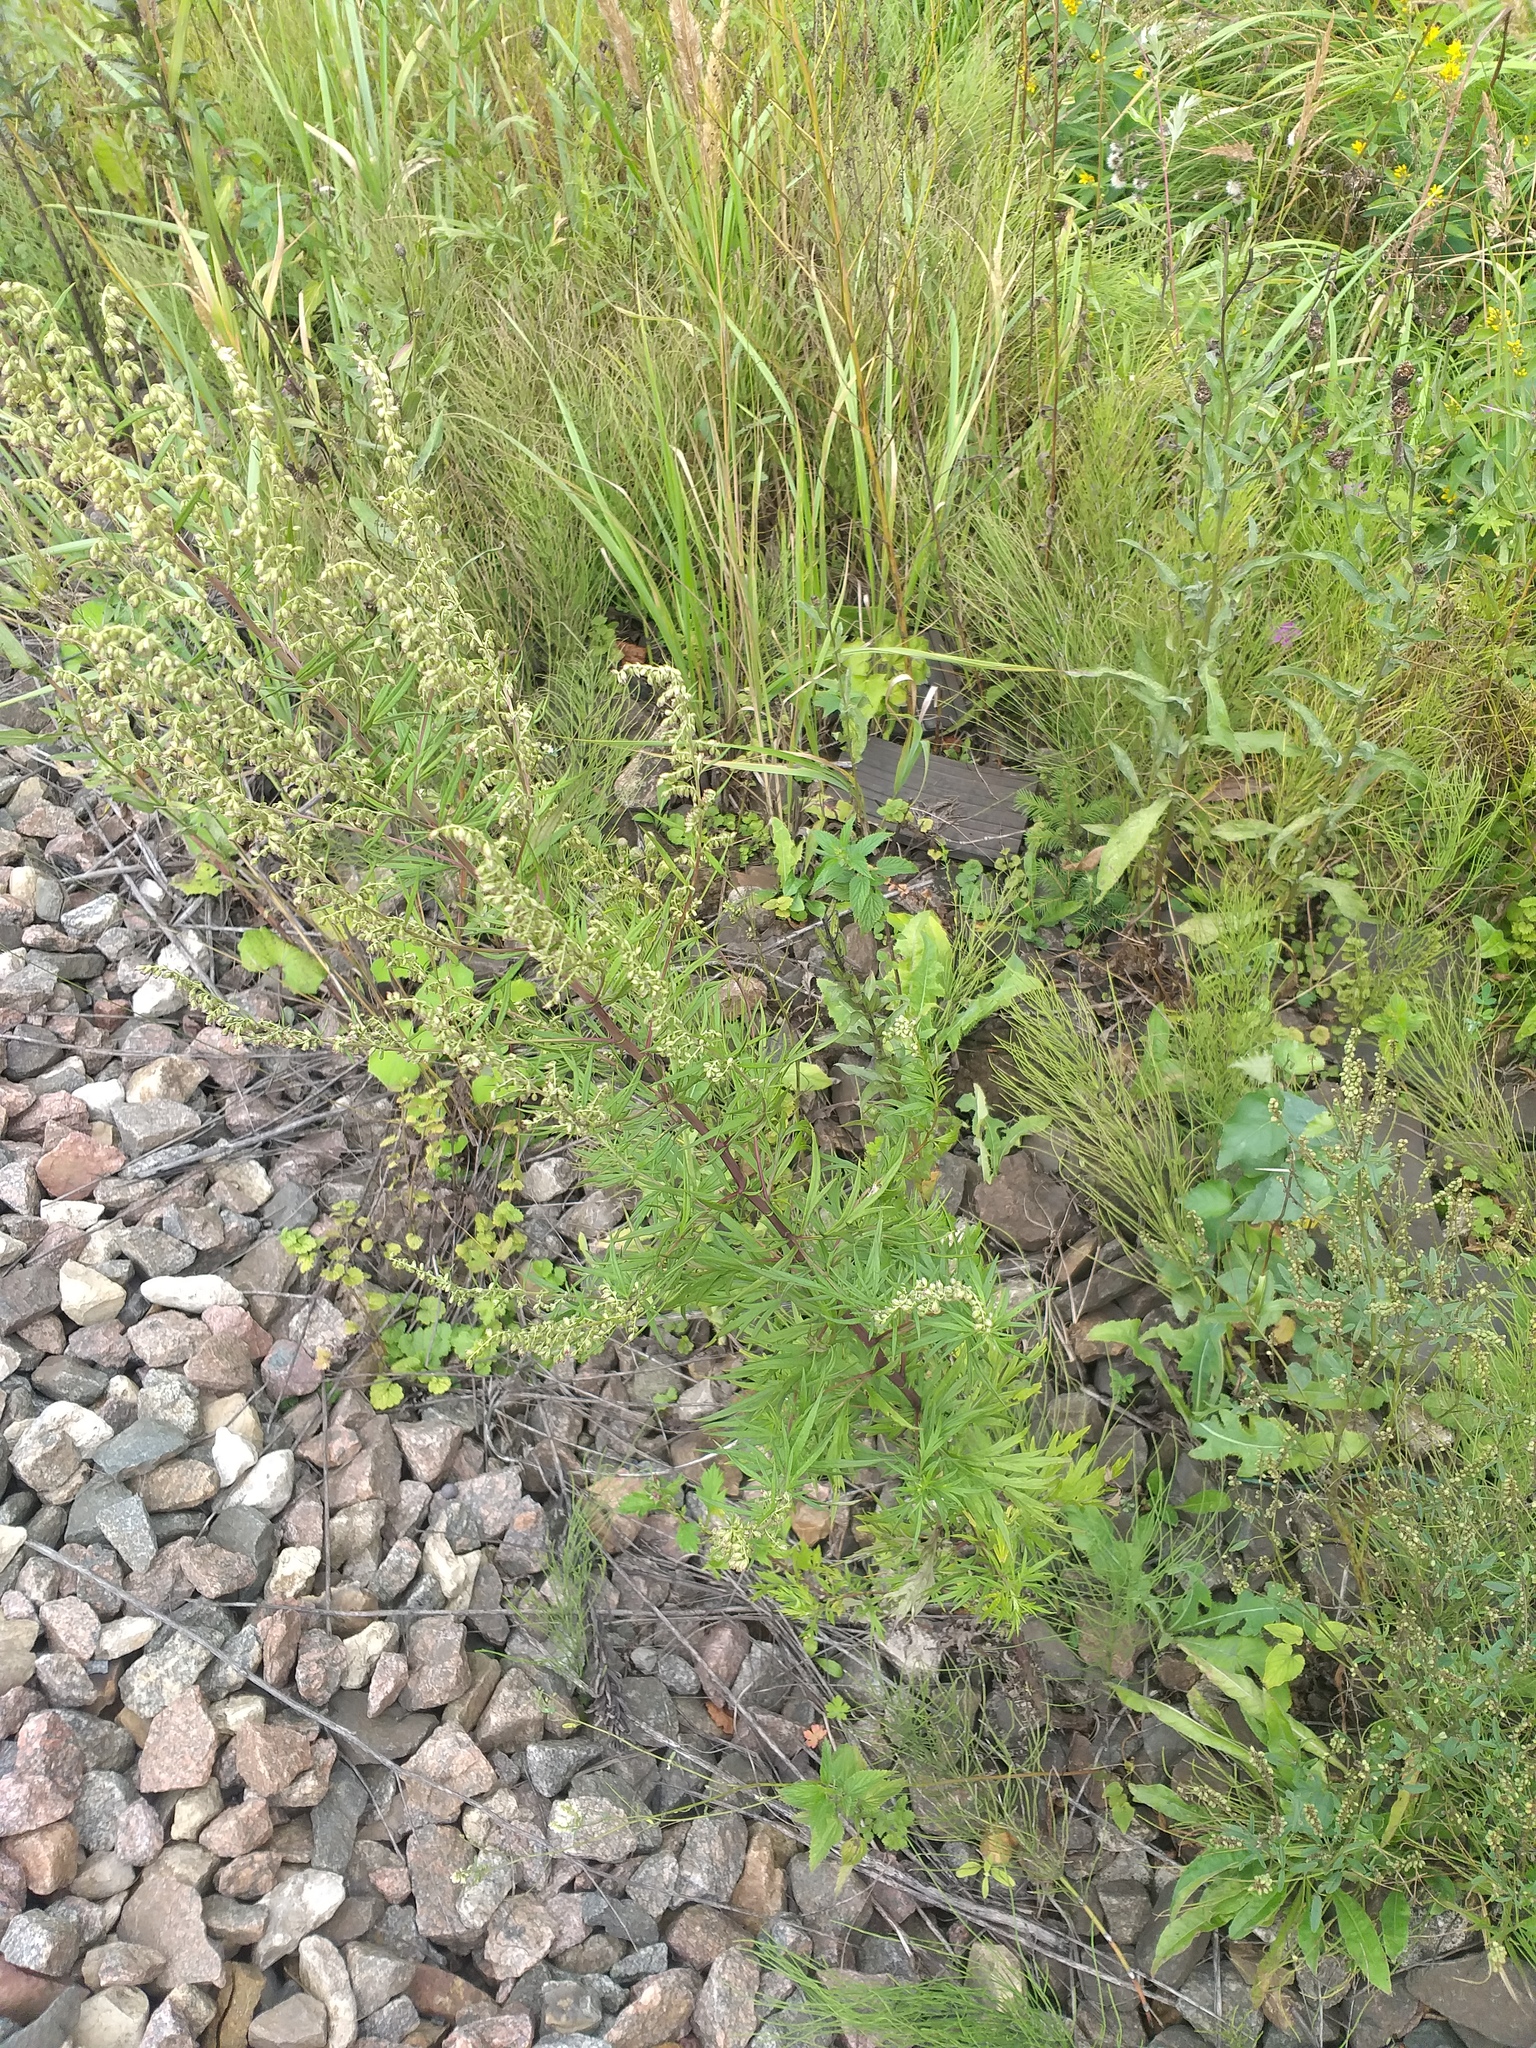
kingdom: Plantae
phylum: Tracheophyta
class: Magnoliopsida
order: Asterales
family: Asteraceae
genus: Artemisia
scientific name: Artemisia vulgaris
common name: Mugwort
